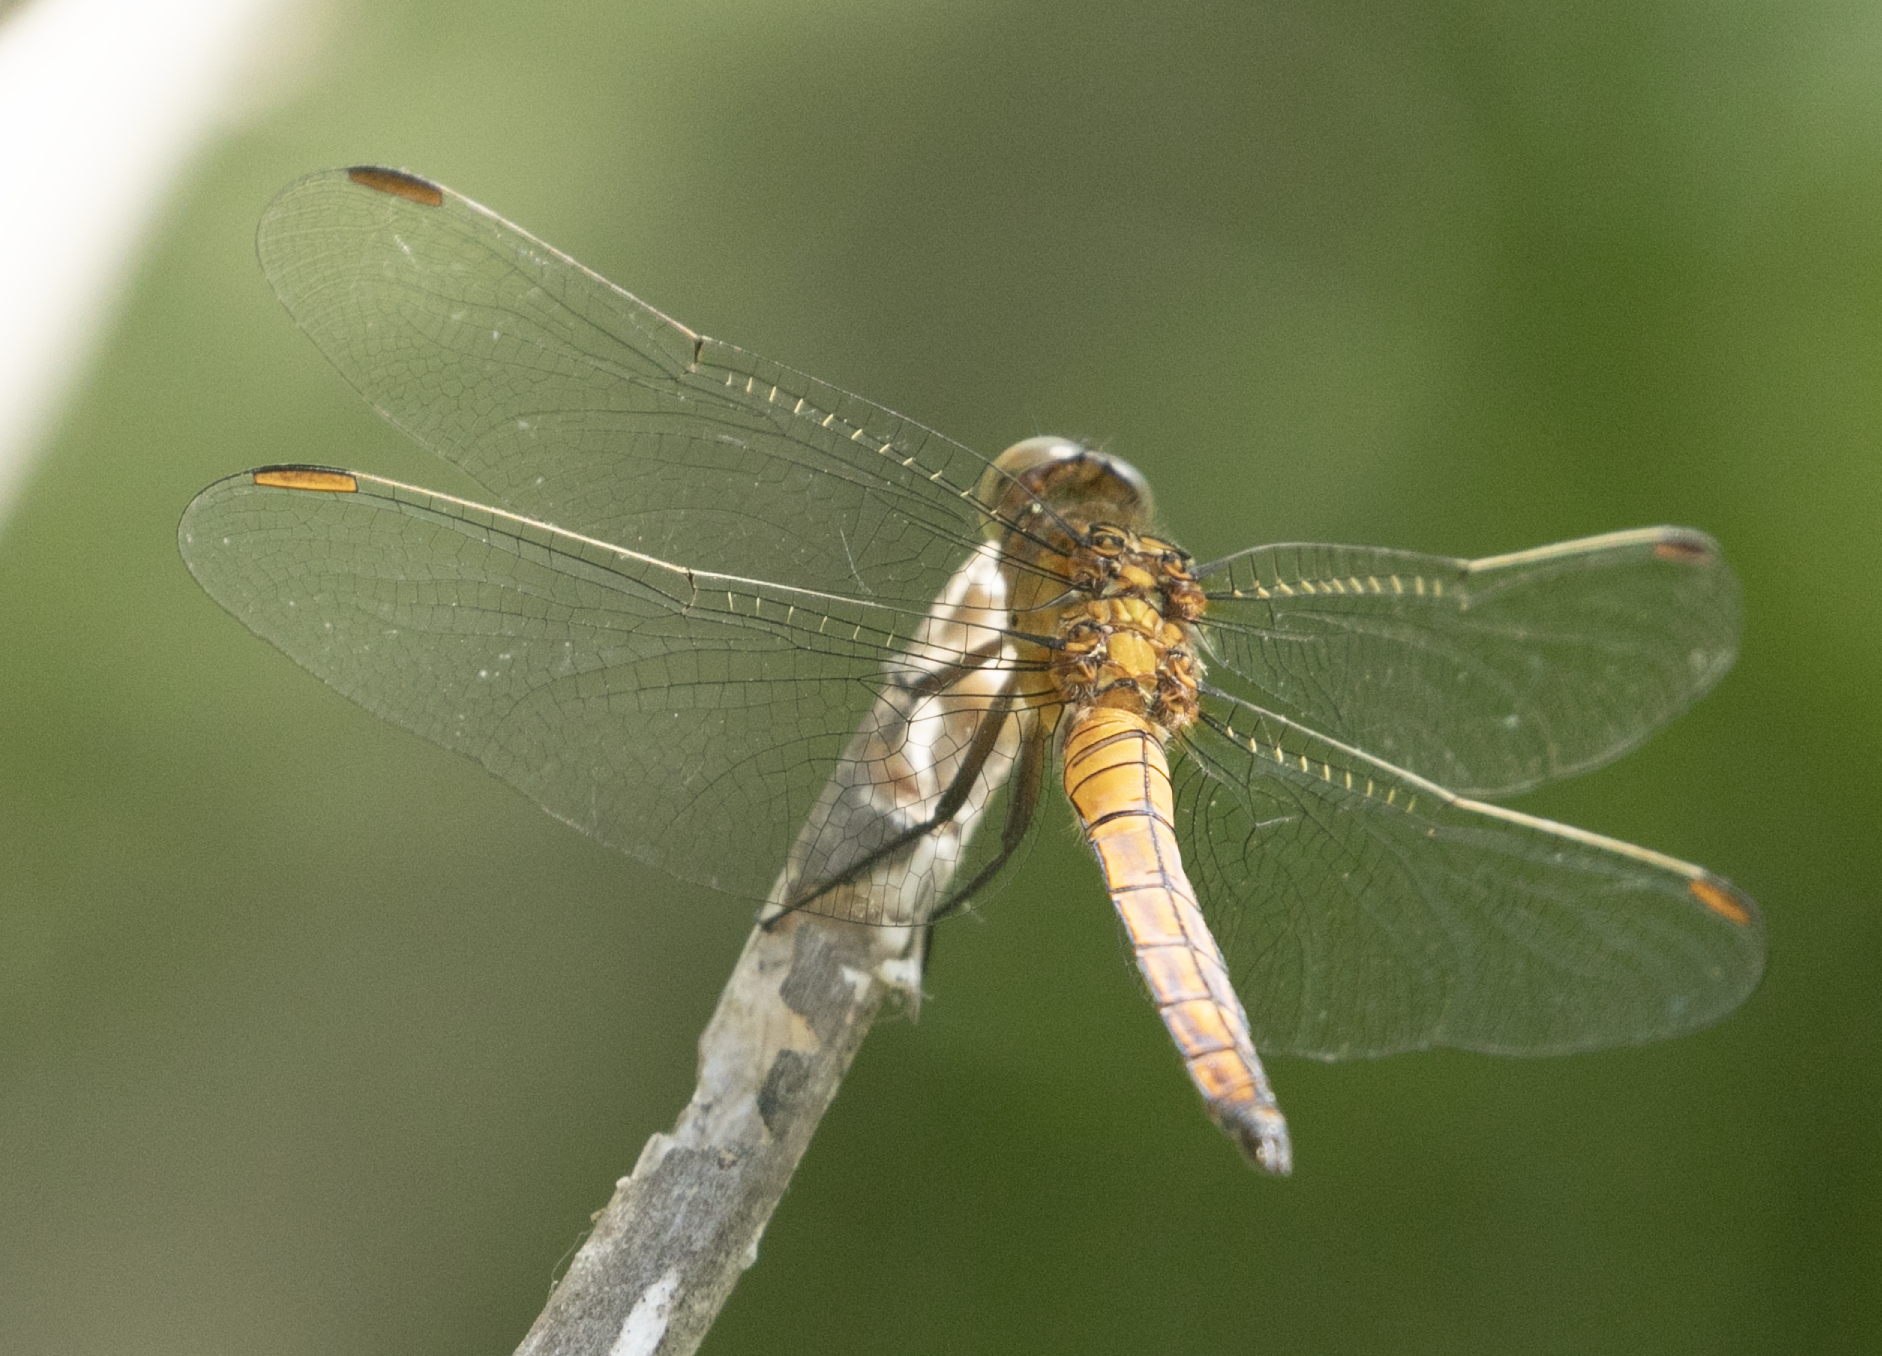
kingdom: Animalia
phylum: Arthropoda
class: Insecta
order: Odonata
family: Libellulidae
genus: Orthetrum
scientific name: Orthetrum coerulescens
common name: Keeled skimmer
